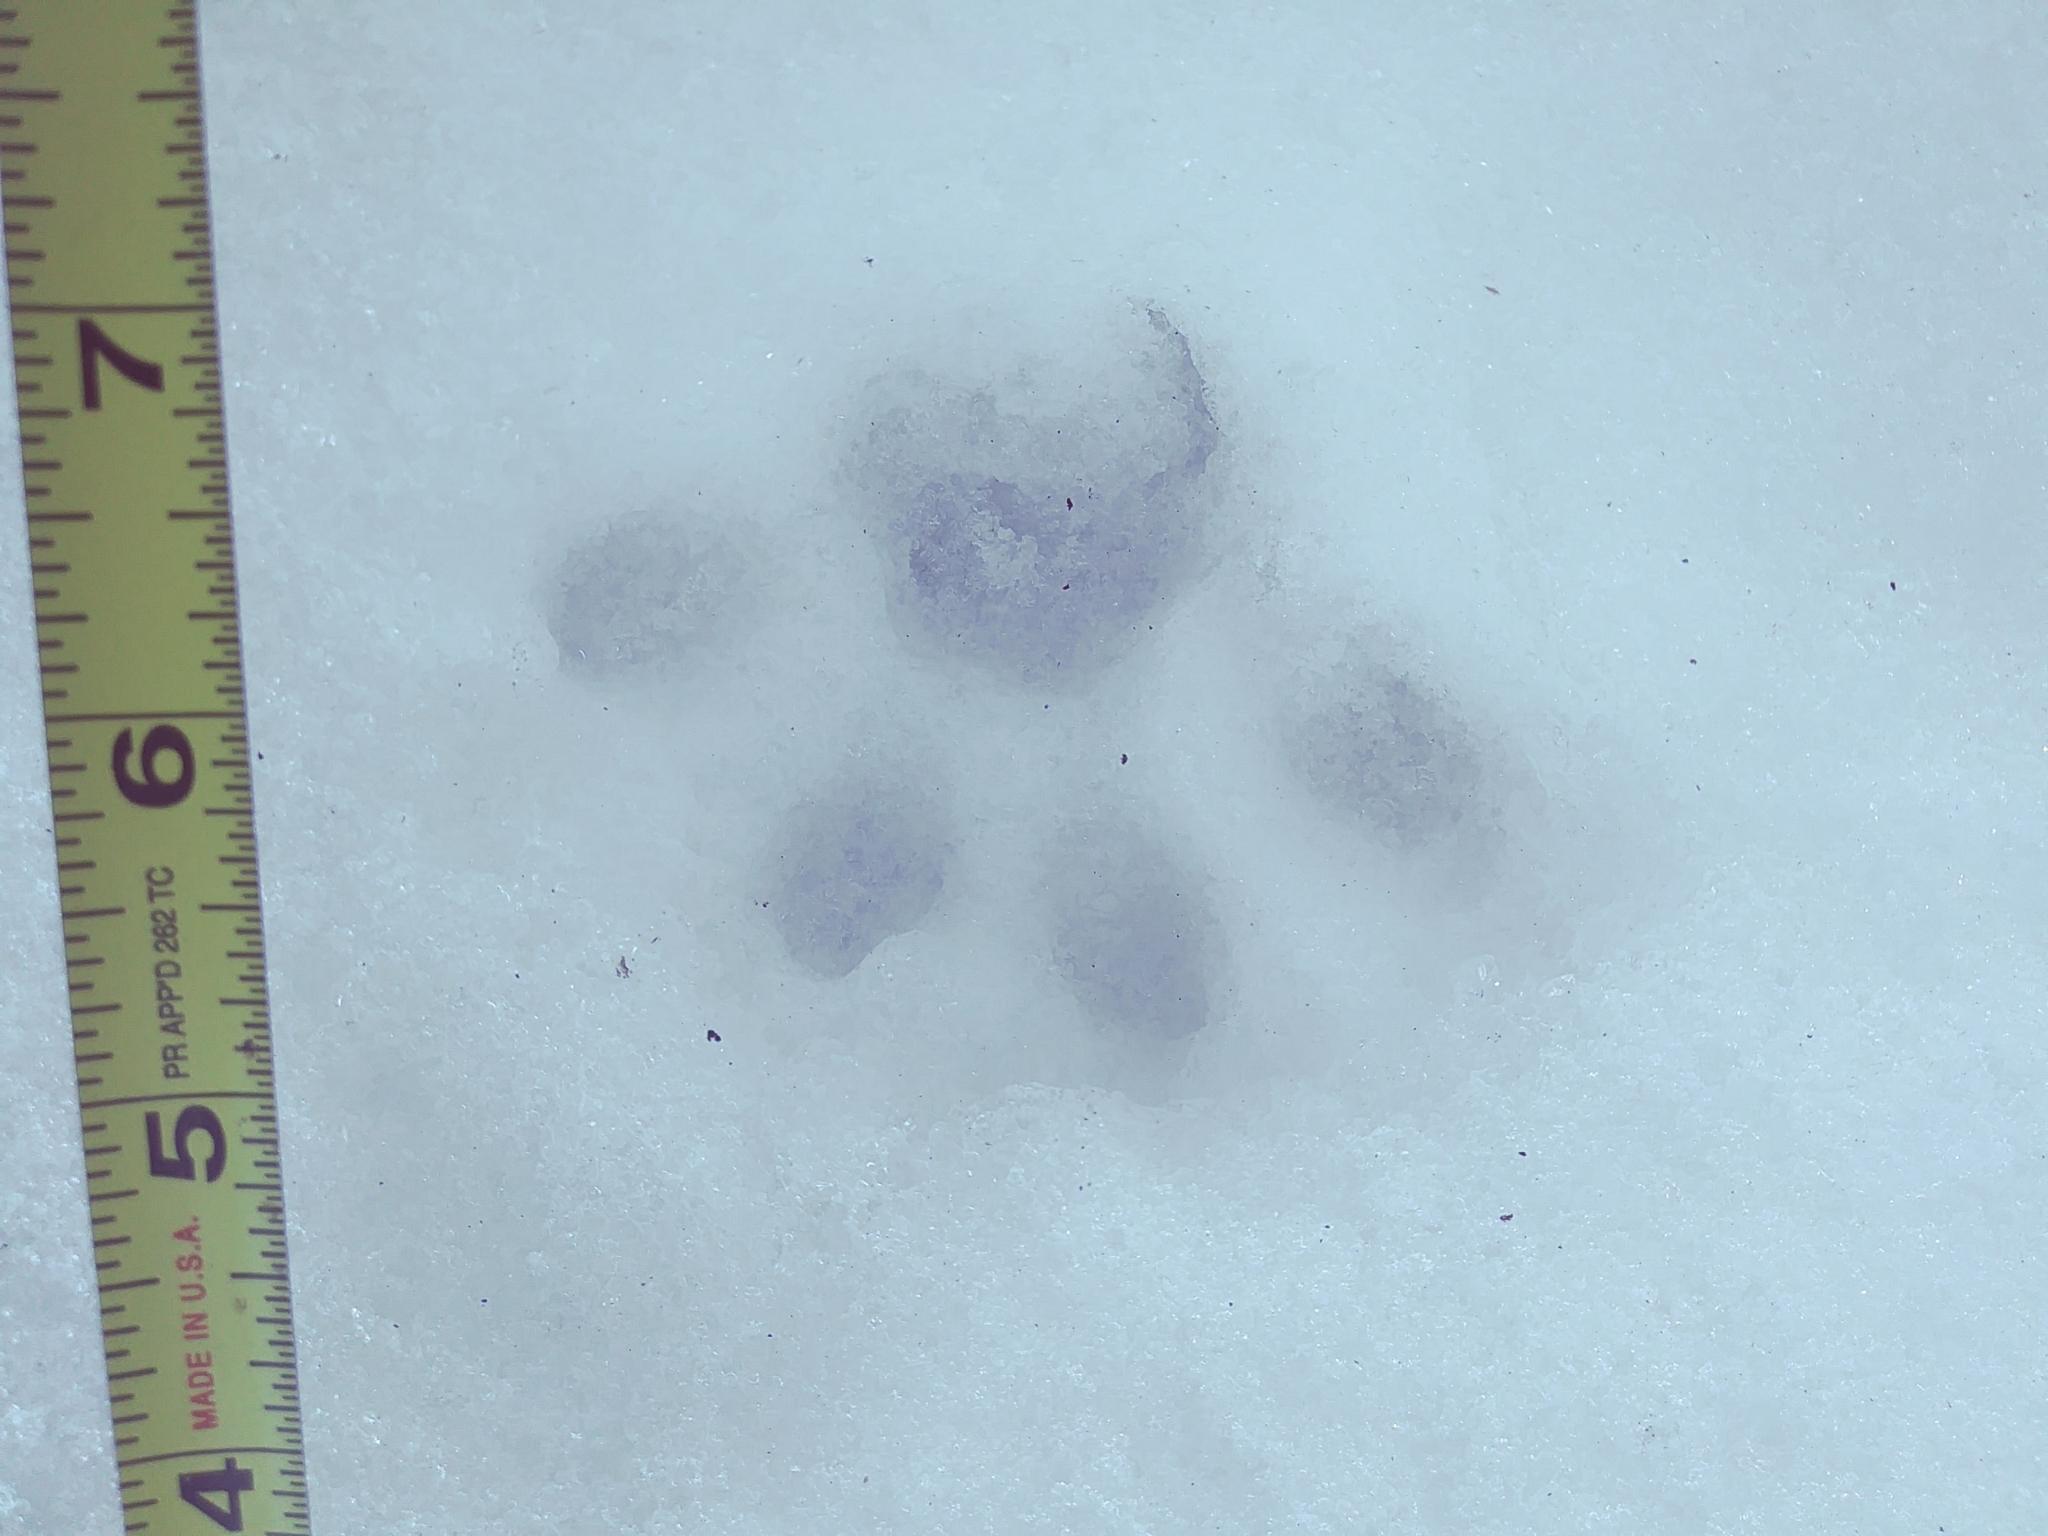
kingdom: Animalia
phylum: Chordata
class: Mammalia
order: Carnivora
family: Felidae
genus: Lynx
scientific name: Lynx rufus
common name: Bobcat
